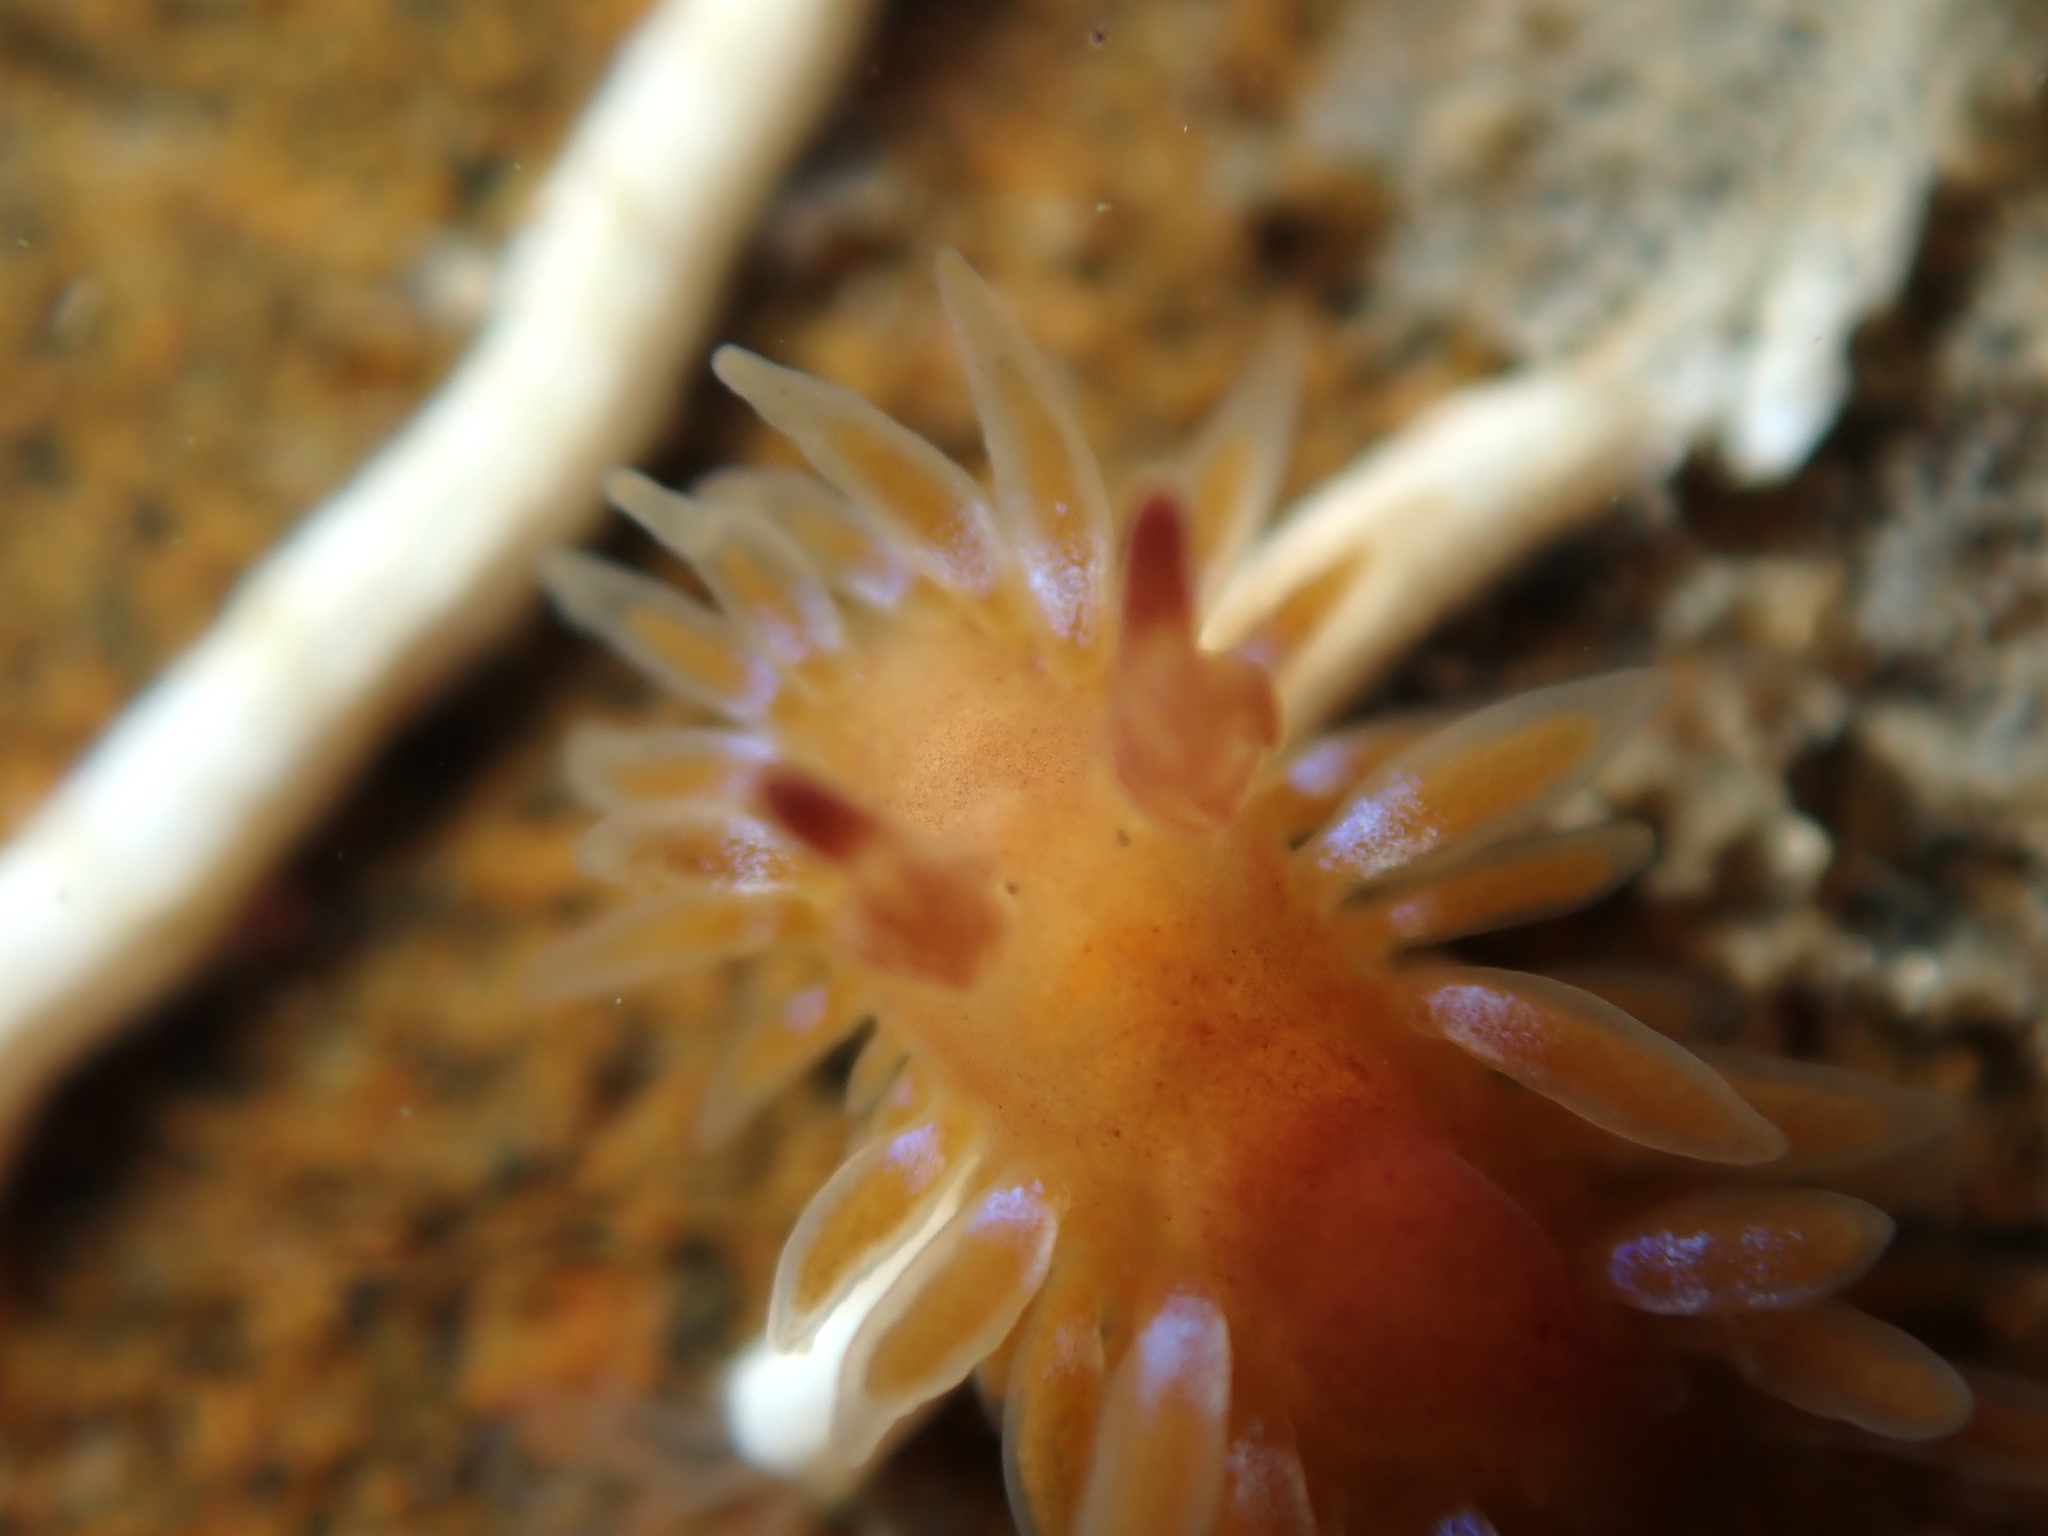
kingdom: Animalia
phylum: Mollusca
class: Gastropoda
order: Nudibranchia
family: Proctonotidae
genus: Caldukia
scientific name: Caldukia rubiginosa
